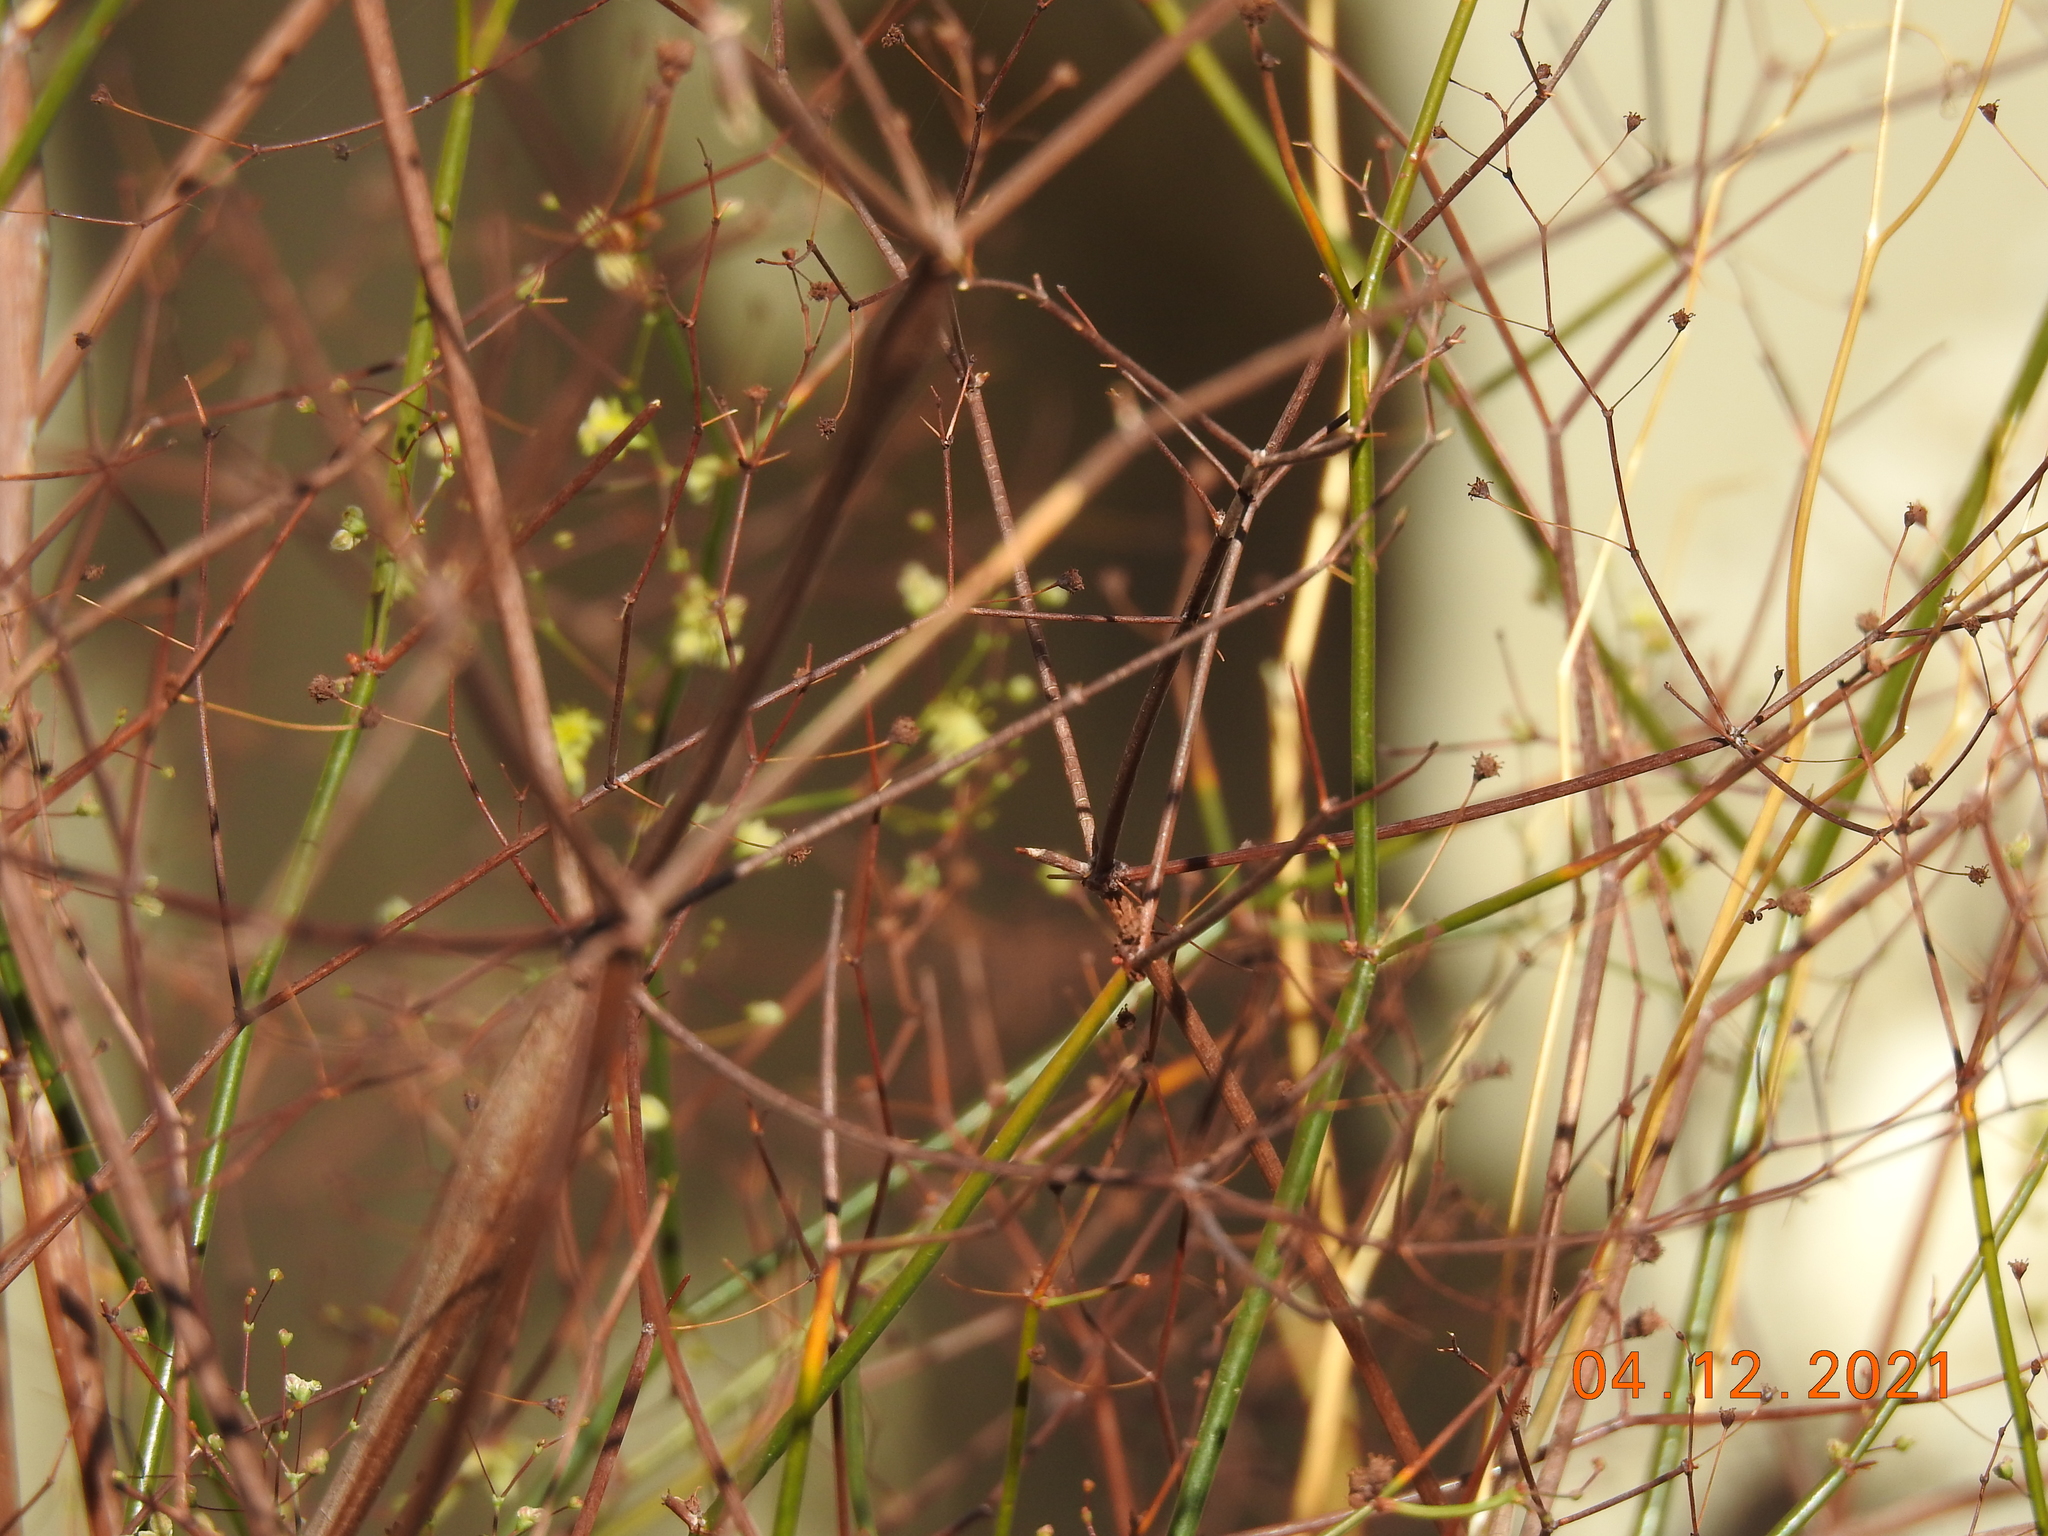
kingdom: Plantae
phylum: Tracheophyta
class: Magnoliopsida
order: Caryophyllales
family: Polygonaceae
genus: Eriogonum
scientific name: Eriogonum inflatum
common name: Desert trumpet
